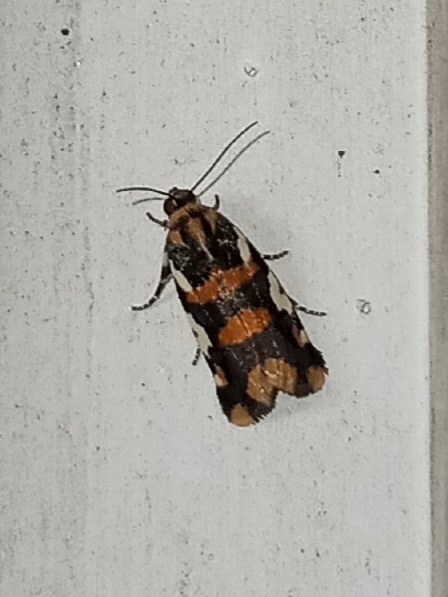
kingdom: Animalia
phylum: Arthropoda
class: Insecta
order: Lepidoptera
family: Noctuidae
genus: Acontia
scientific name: Acontia dama
